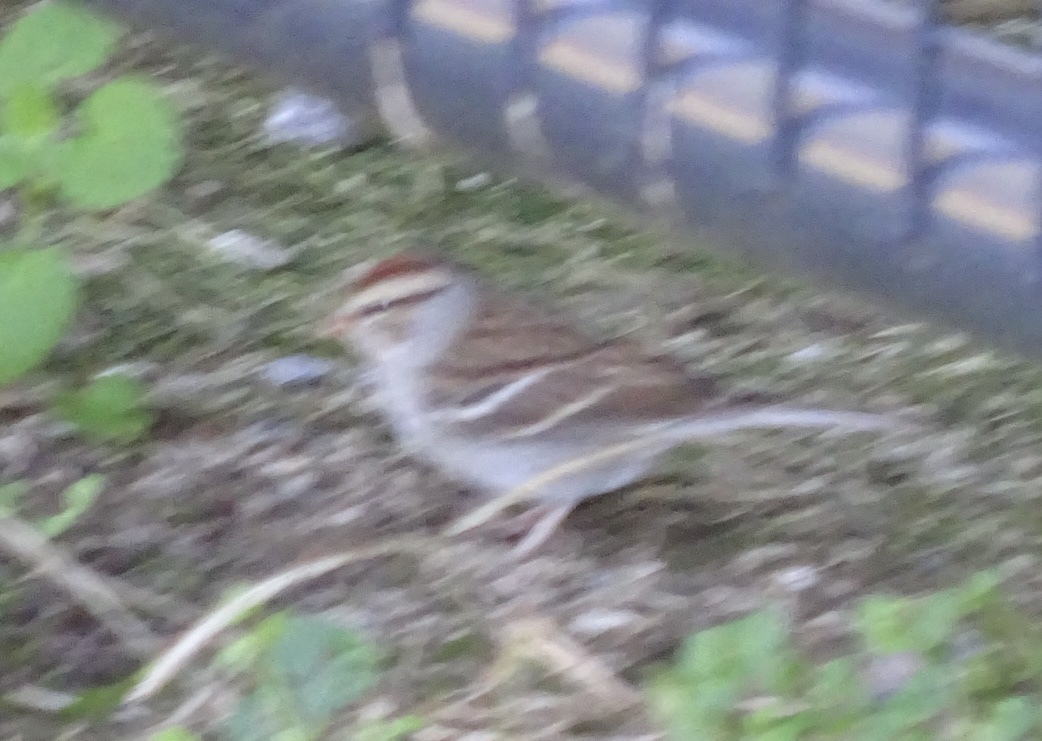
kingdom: Animalia
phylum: Chordata
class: Aves
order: Passeriformes
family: Passerellidae
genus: Spizella
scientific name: Spizella passerina
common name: Chipping sparrow
